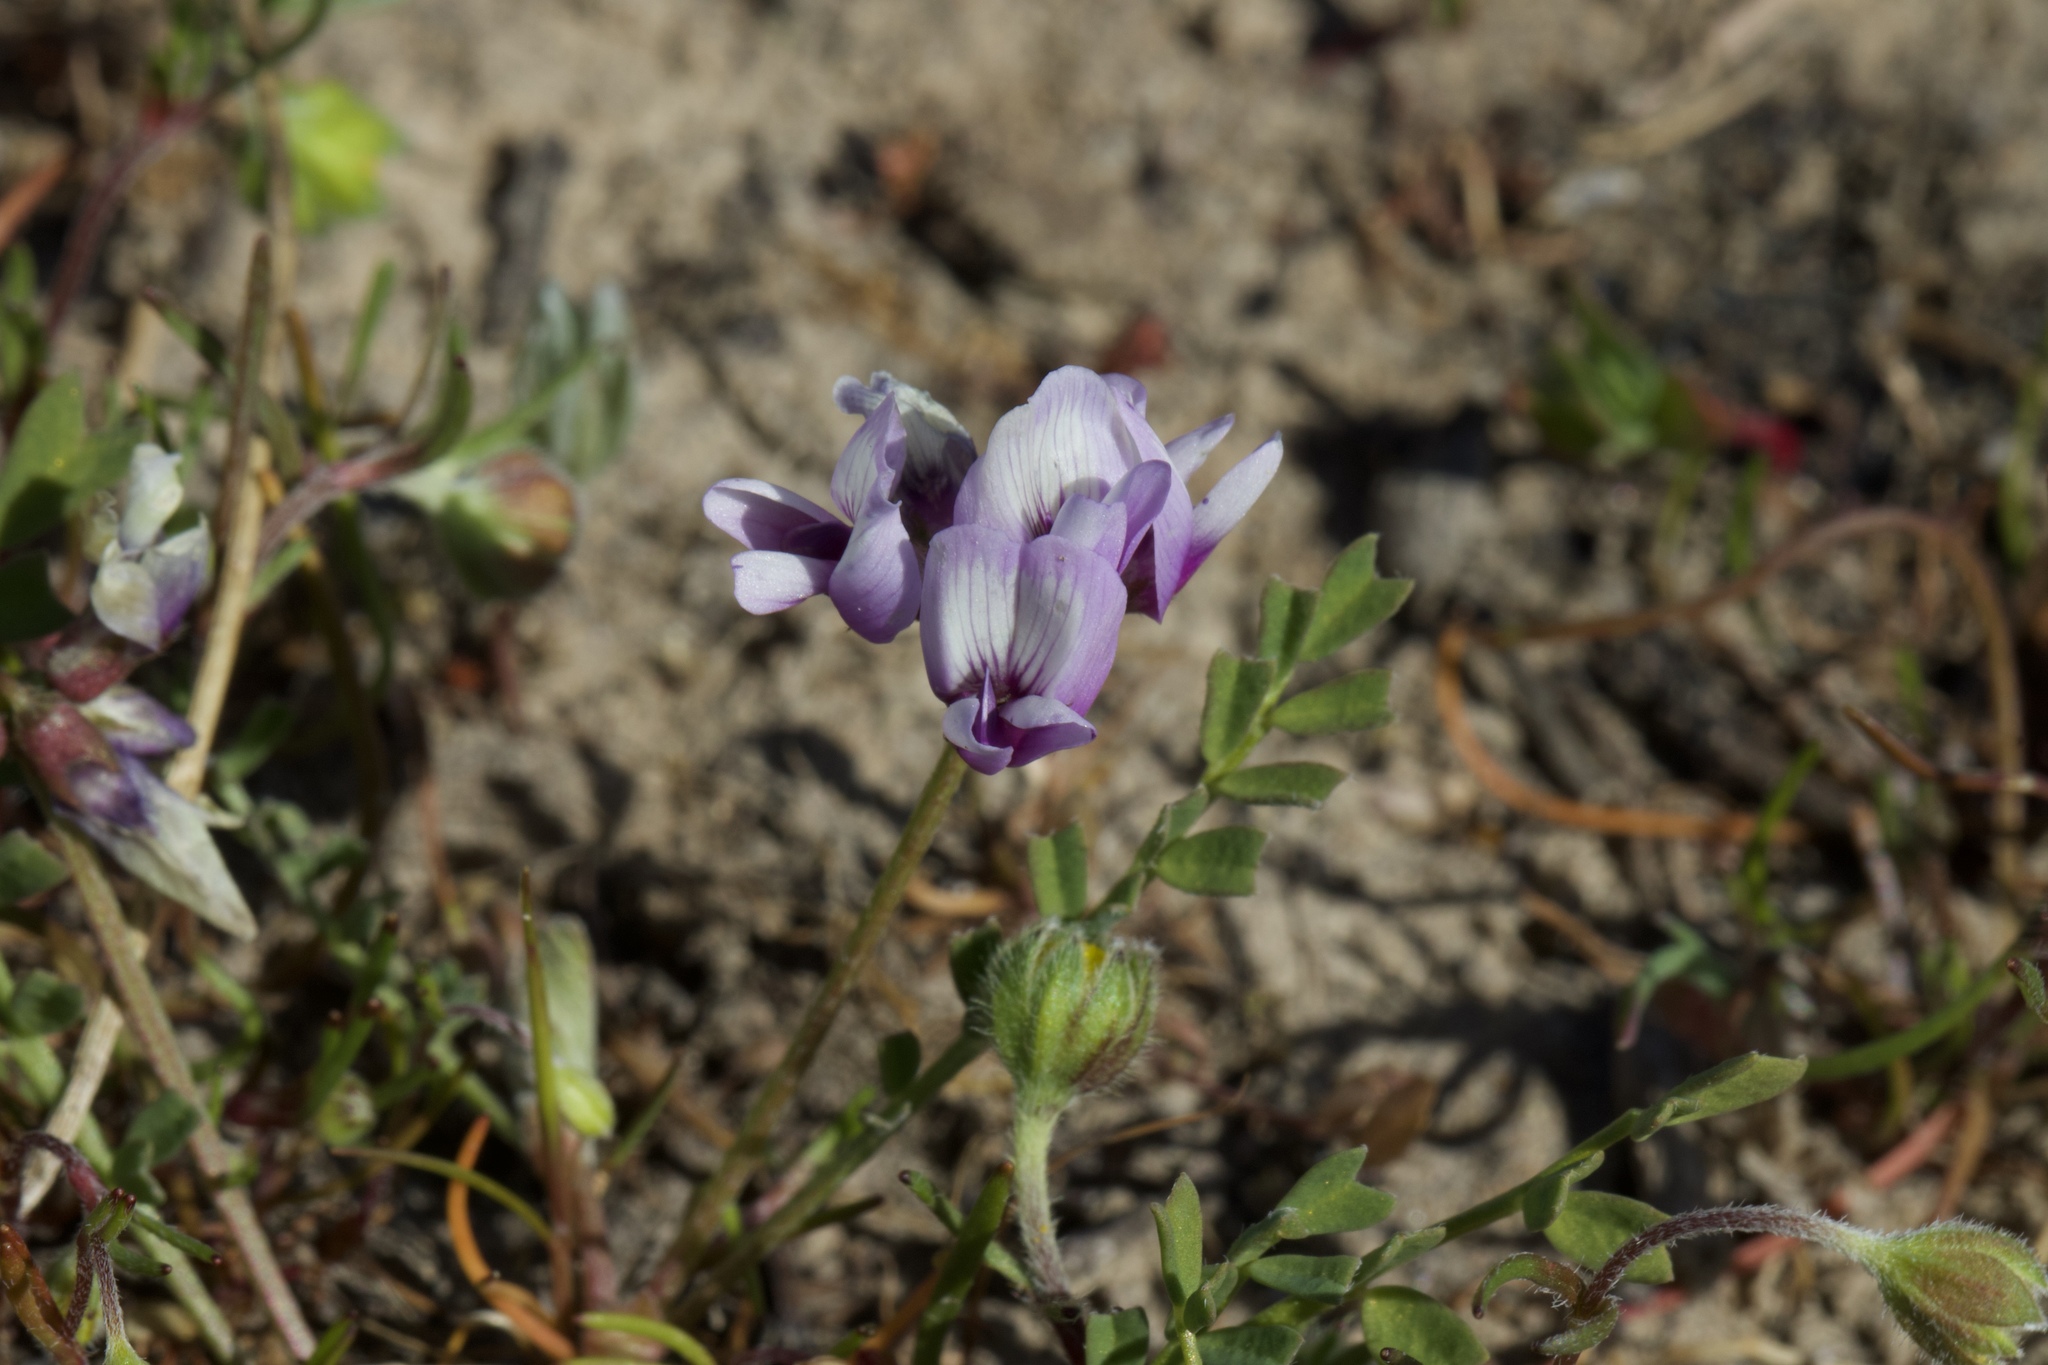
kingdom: Plantae
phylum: Tracheophyta
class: Magnoliopsida
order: Fabales
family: Fabaceae
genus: Astragalus
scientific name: Astragalus tener
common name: Gray slender milkvetch
